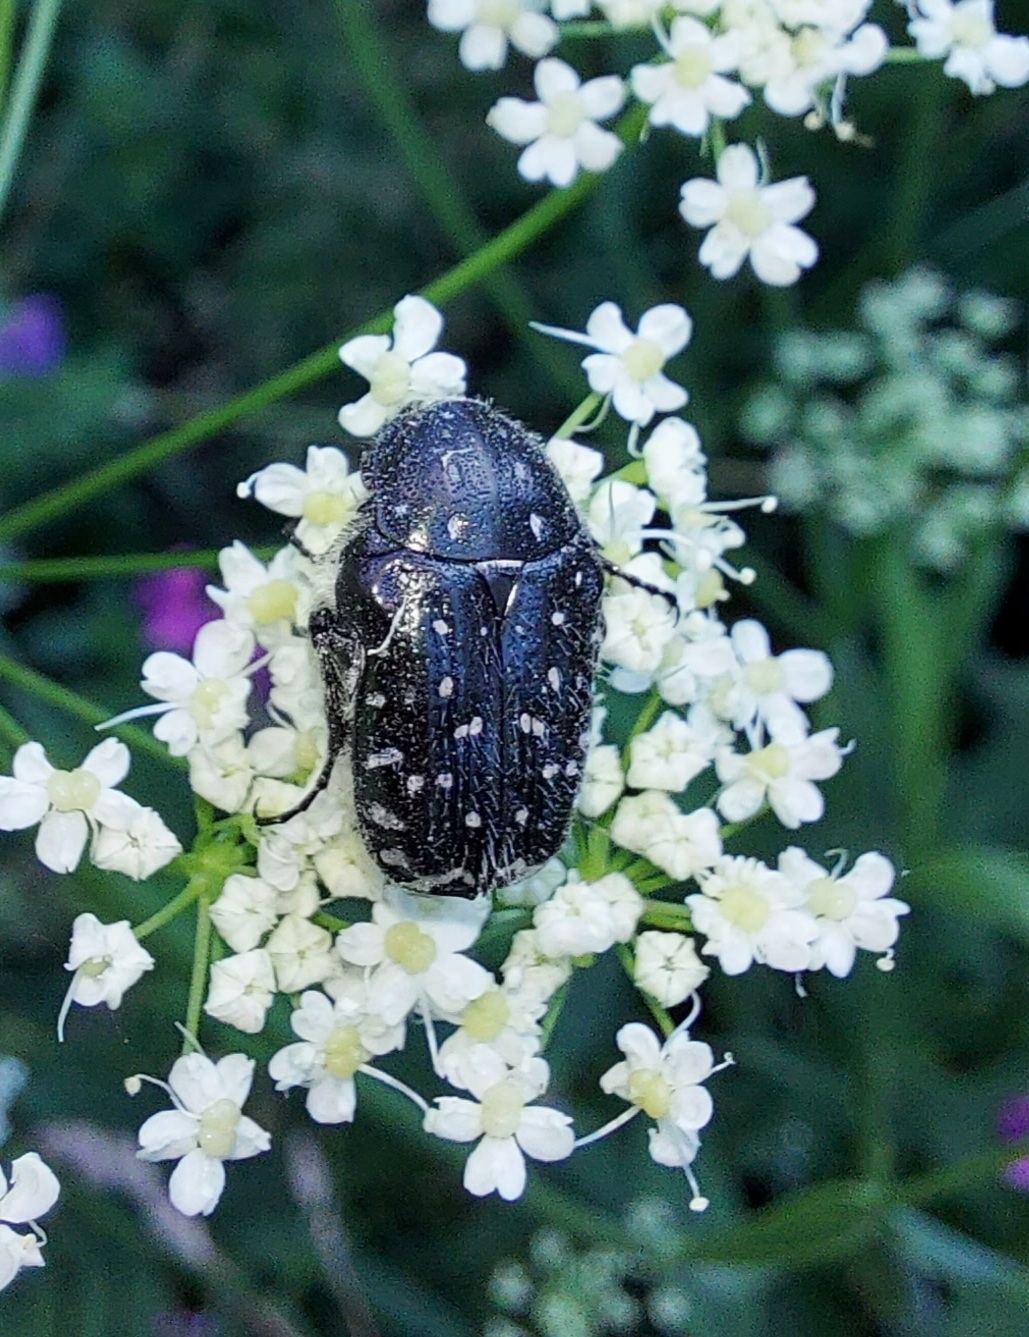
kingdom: Animalia
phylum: Arthropoda
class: Insecta
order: Coleoptera
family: Scarabaeidae
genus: Oxythyrea
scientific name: Oxythyrea funesta
